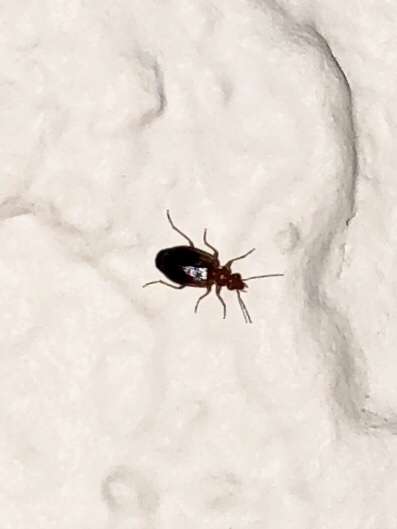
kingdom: Animalia
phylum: Arthropoda
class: Insecta
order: Coleoptera
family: Carabidae
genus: Lebia
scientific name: Lebia scapula
